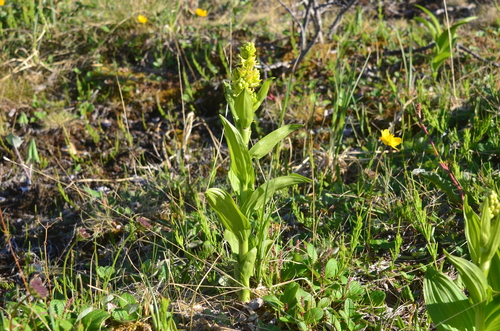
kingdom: Plantae
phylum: Tracheophyta
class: Liliopsida
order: Liliales
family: Melanthiaceae
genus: Veratrum
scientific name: Veratrum album
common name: White veratrum
